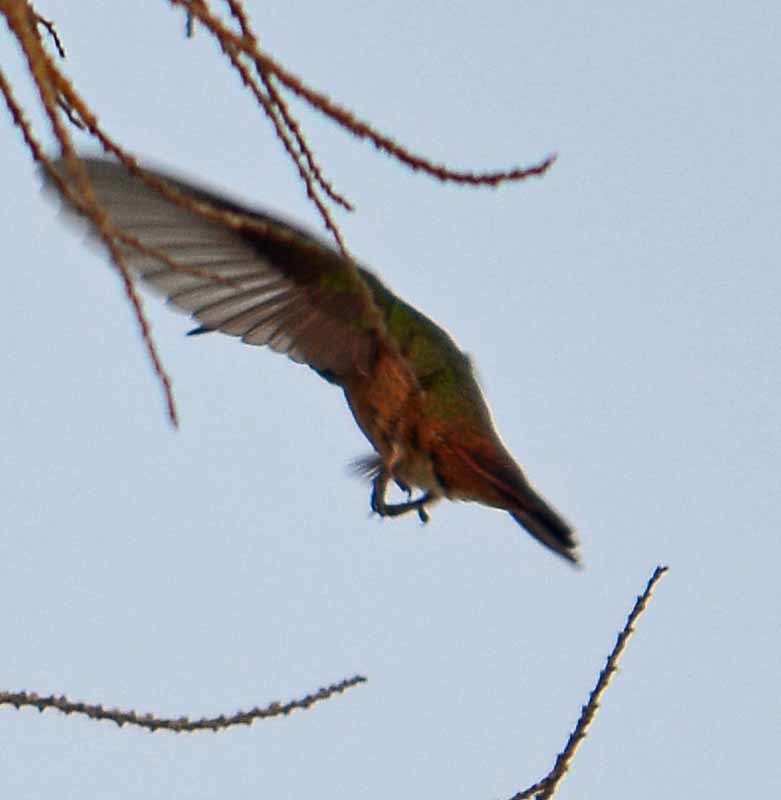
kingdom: Animalia
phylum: Chordata
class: Aves
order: Apodiformes
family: Trochilidae
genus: Amazilia
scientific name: Amazilia yucatanensis
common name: Buff-bellied hummingbird
